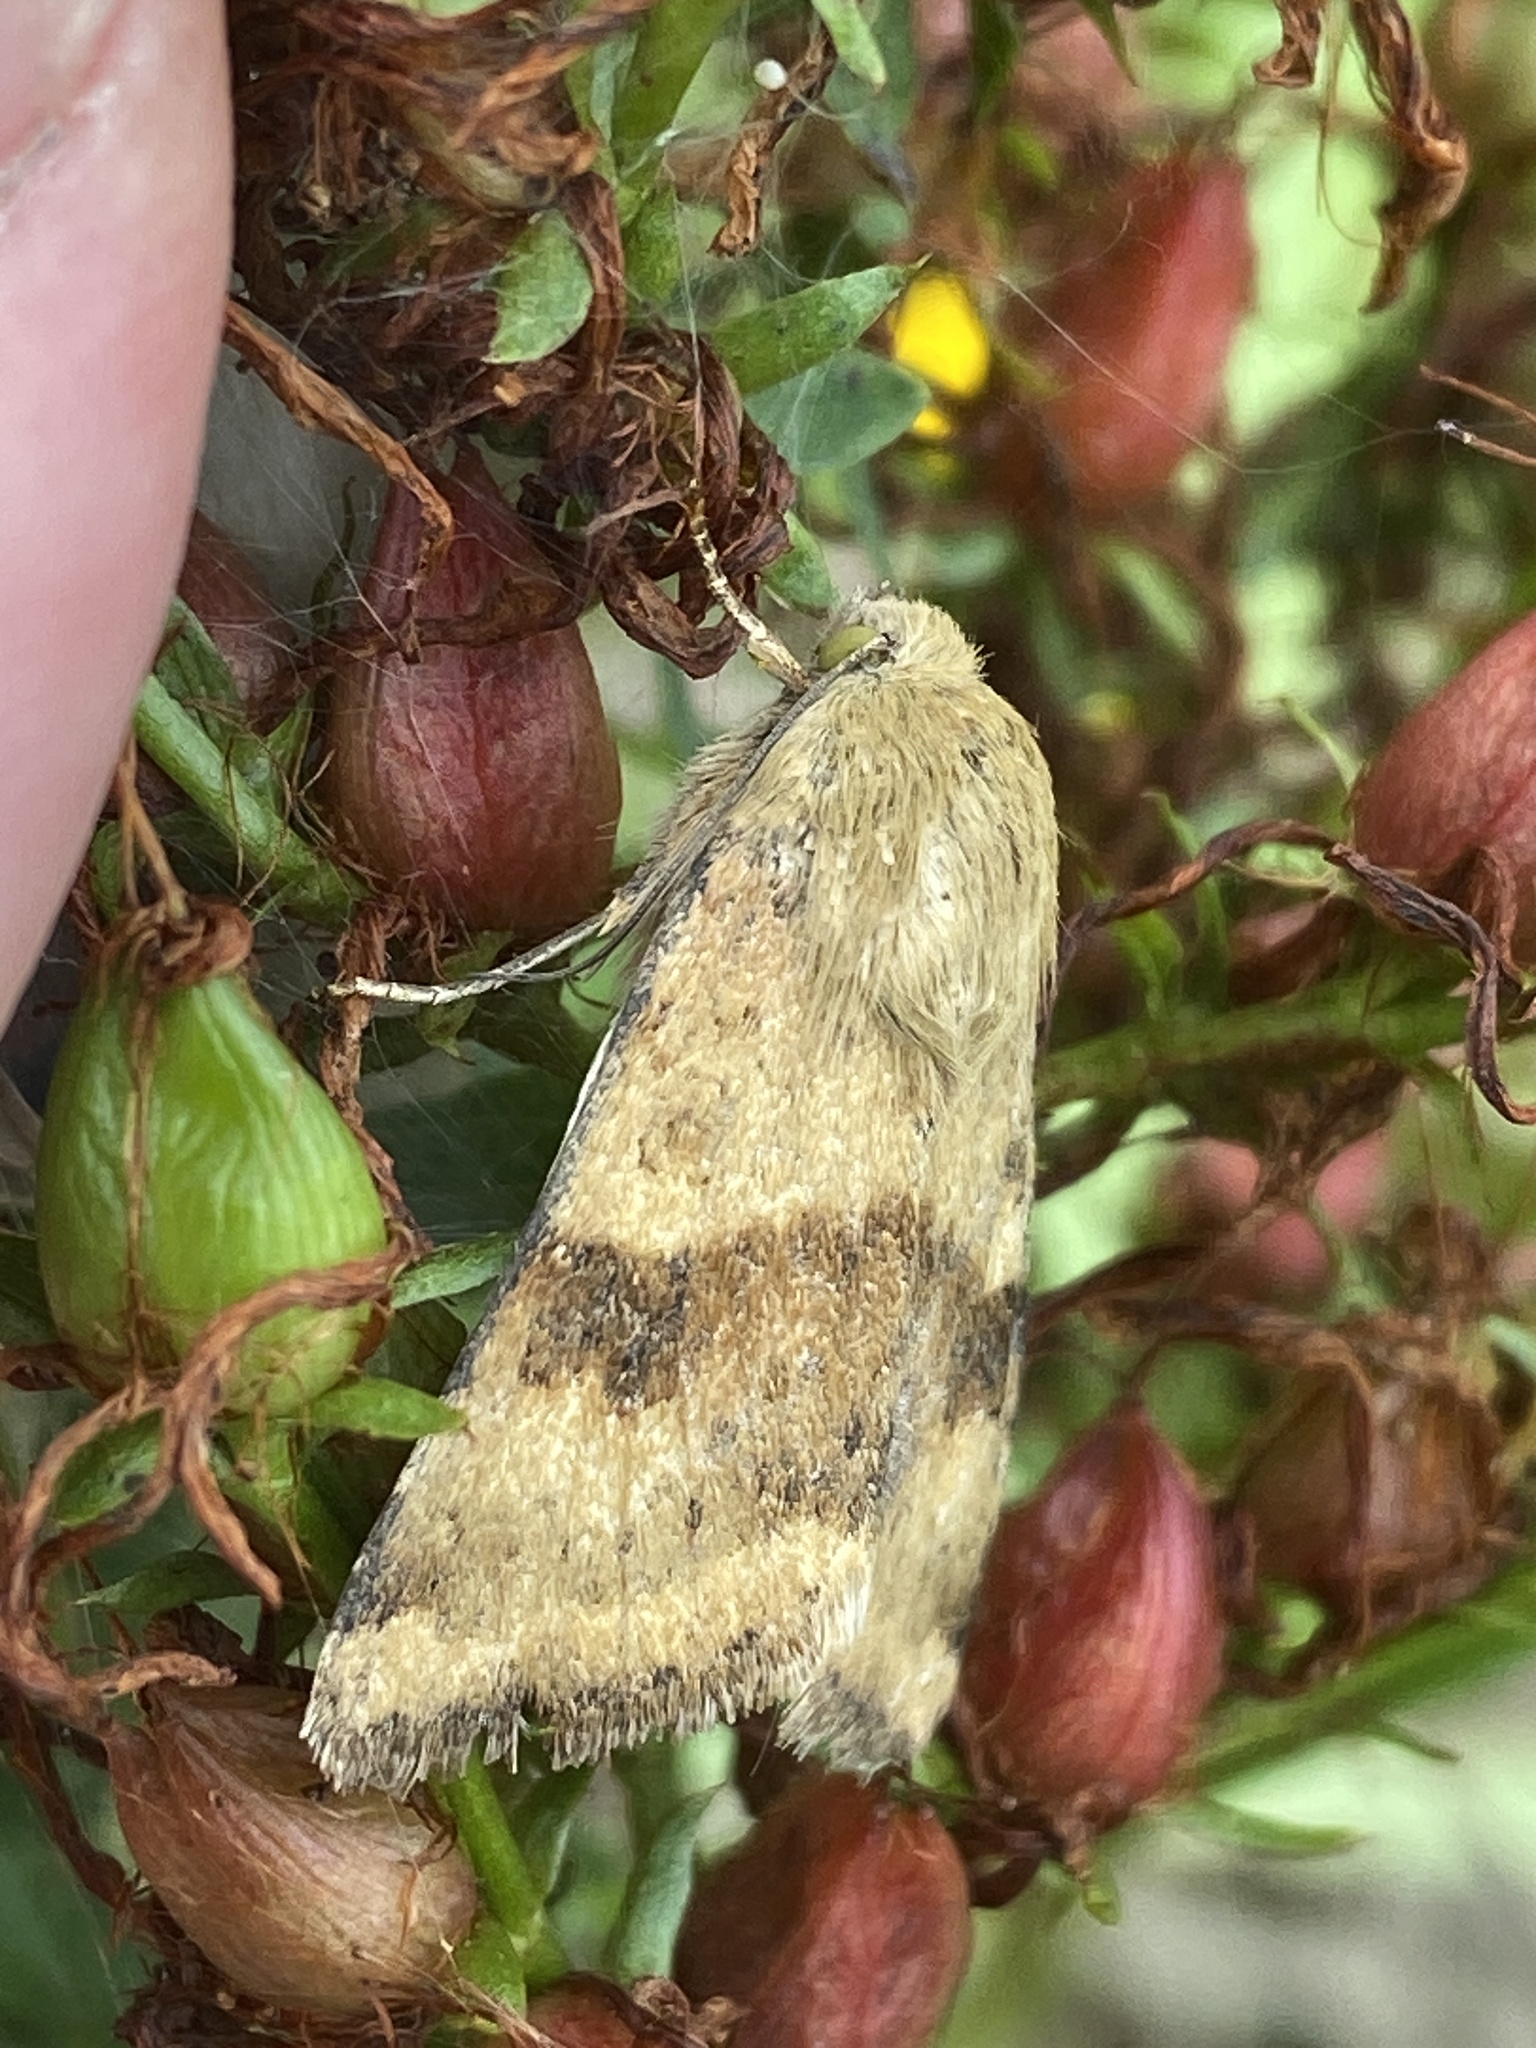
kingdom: Animalia
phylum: Arthropoda
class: Insecta
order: Lepidoptera
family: Noctuidae
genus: Heliothis
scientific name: Heliothis viriplaca
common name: Marbled clover
